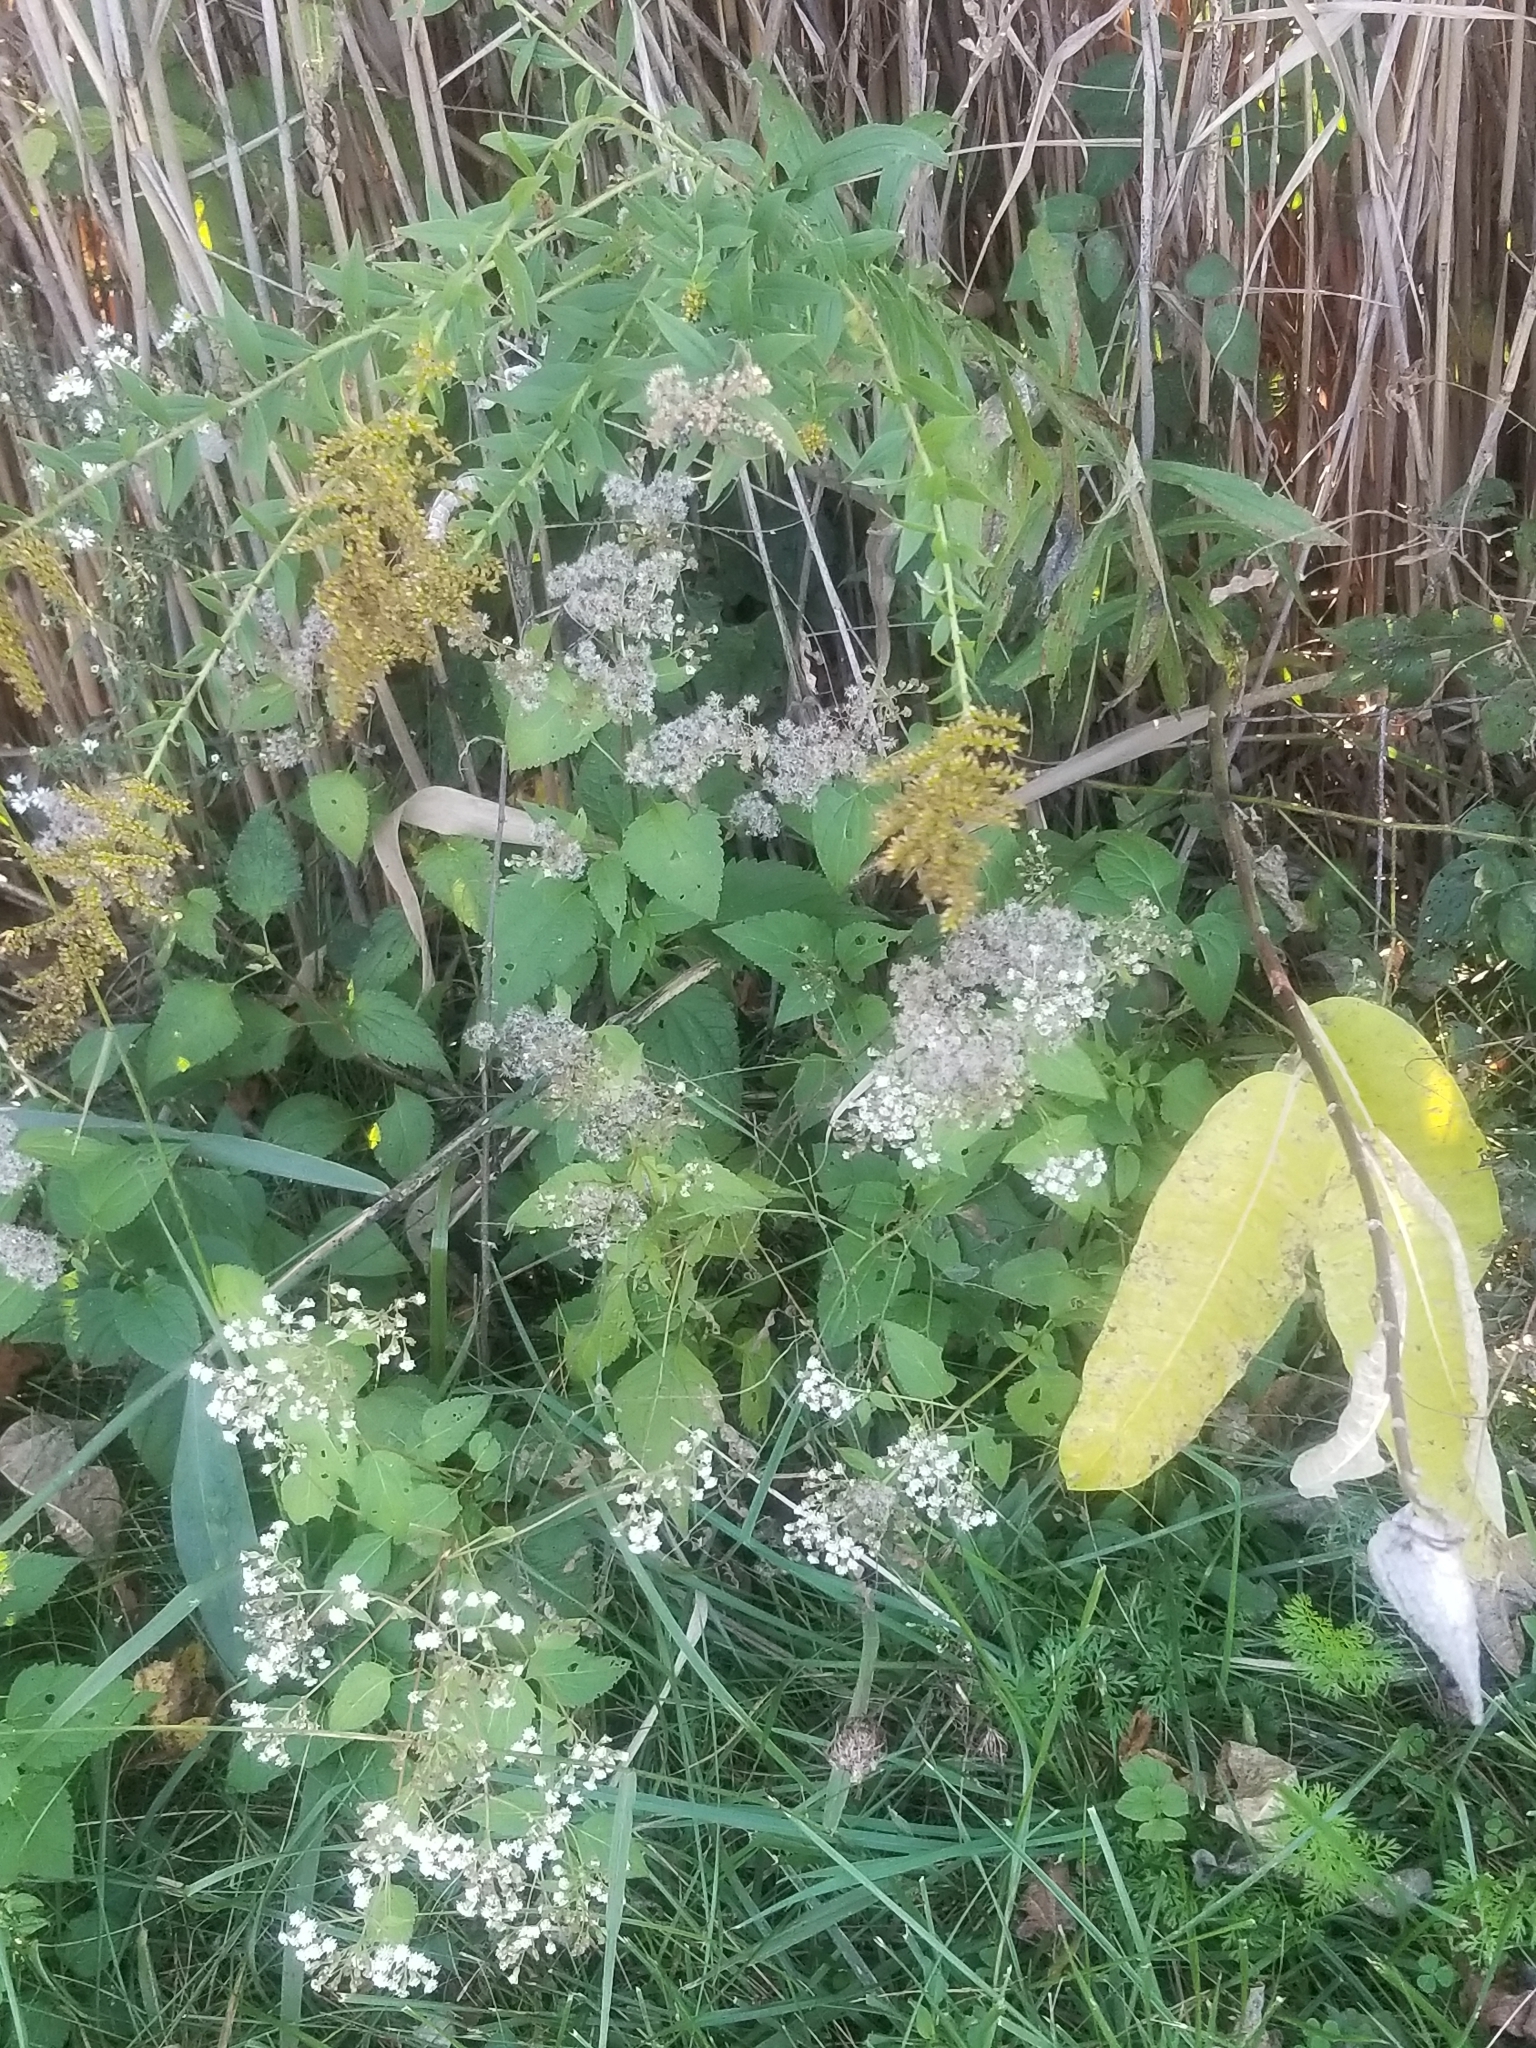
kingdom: Plantae
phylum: Tracheophyta
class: Magnoliopsida
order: Asterales
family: Asteraceae
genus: Ageratina
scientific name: Ageratina altissima
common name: White snakeroot
